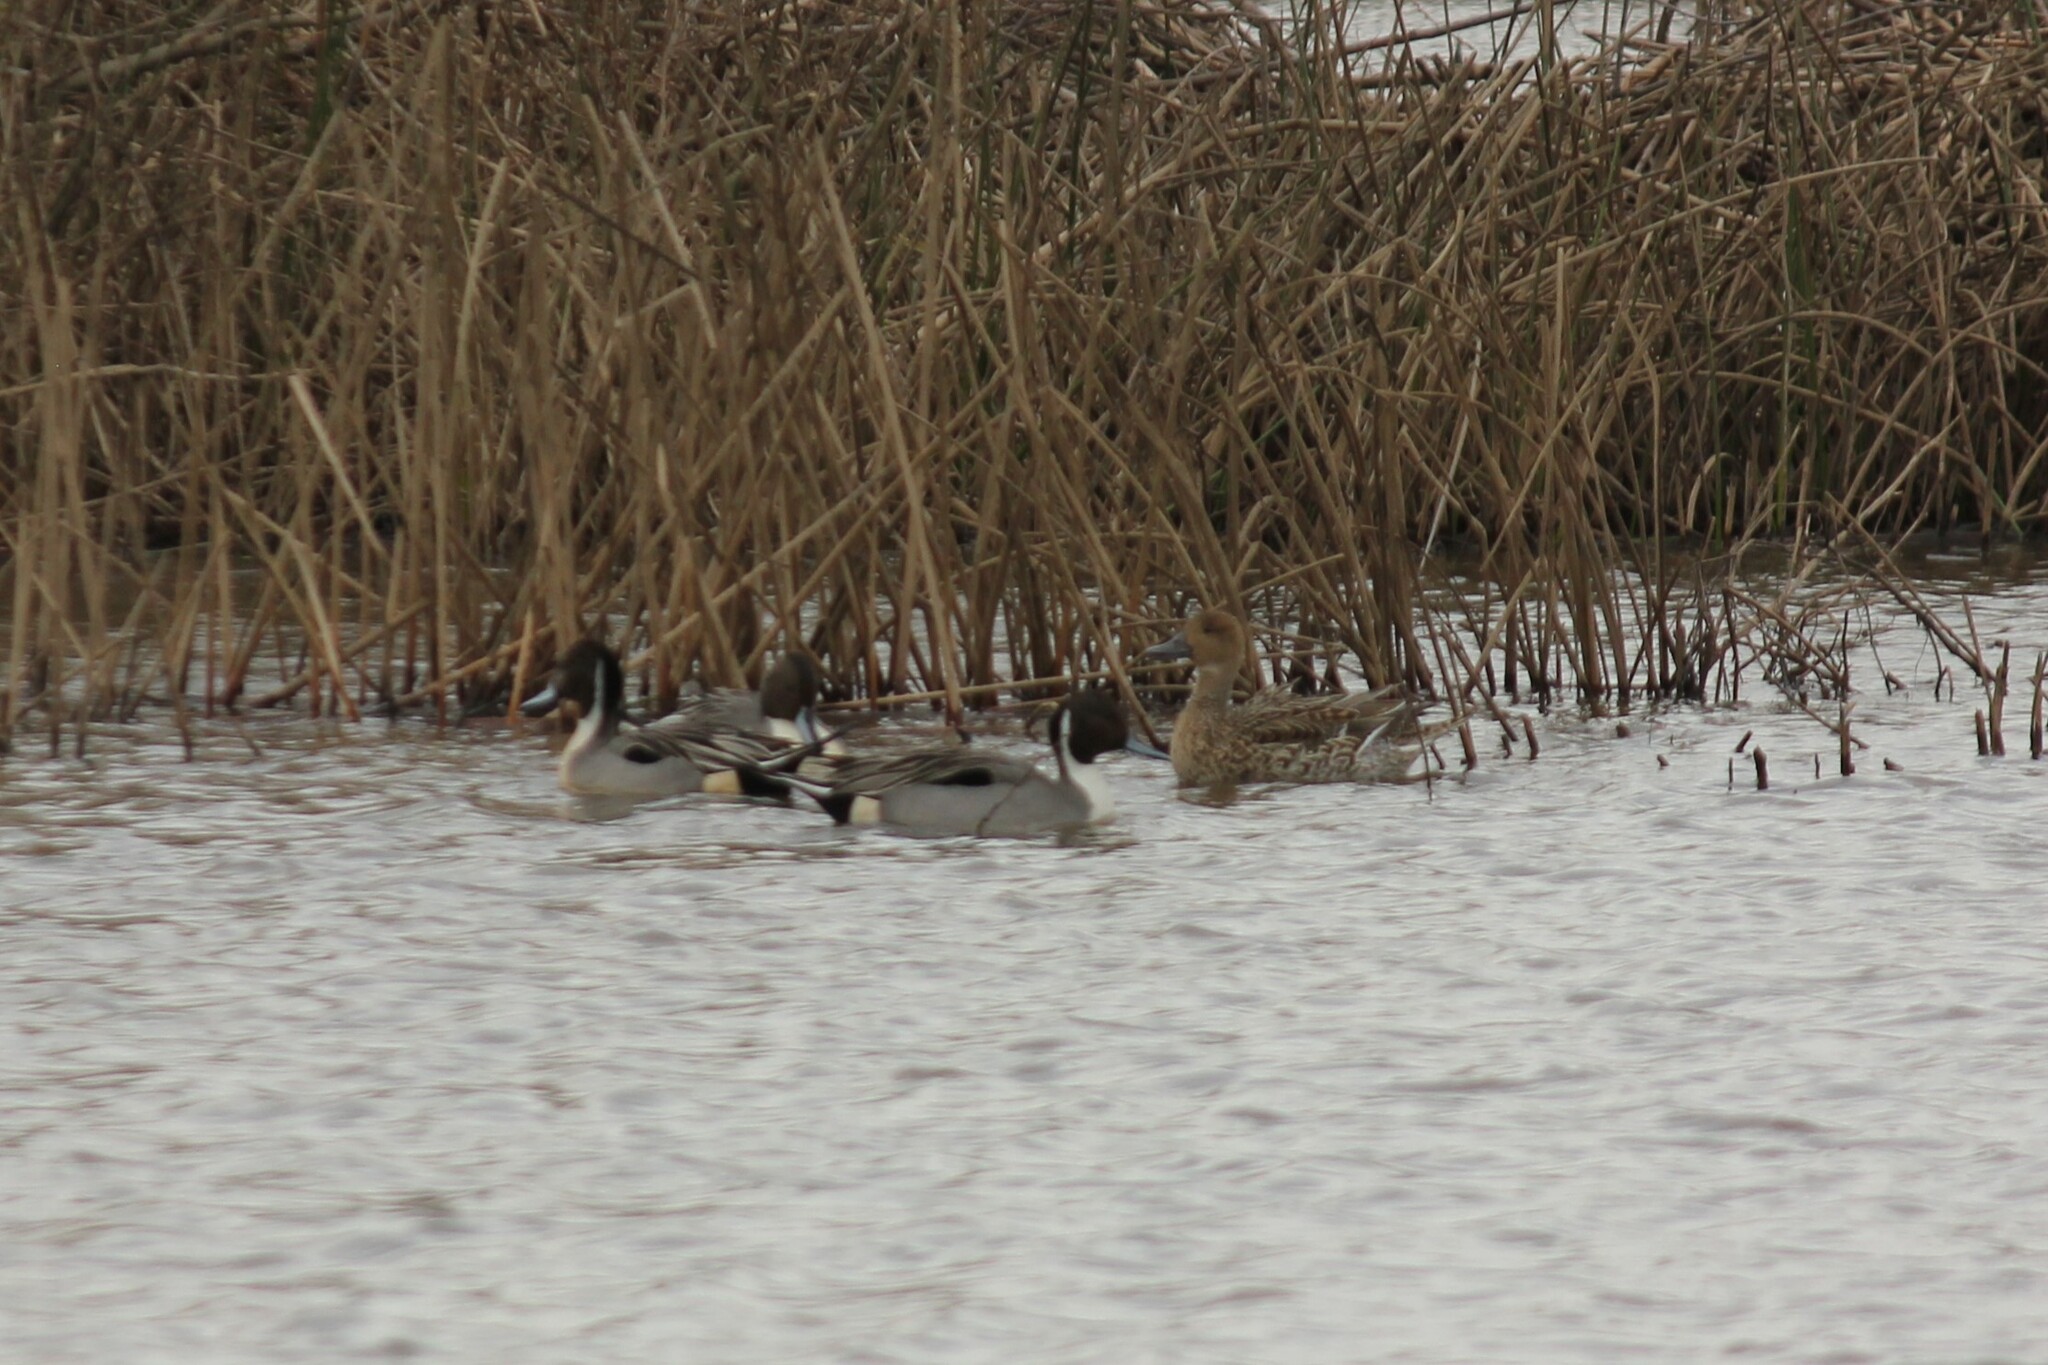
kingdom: Animalia
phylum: Chordata
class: Aves
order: Anseriformes
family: Anatidae
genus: Anas
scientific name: Anas acuta
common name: Northern pintail
